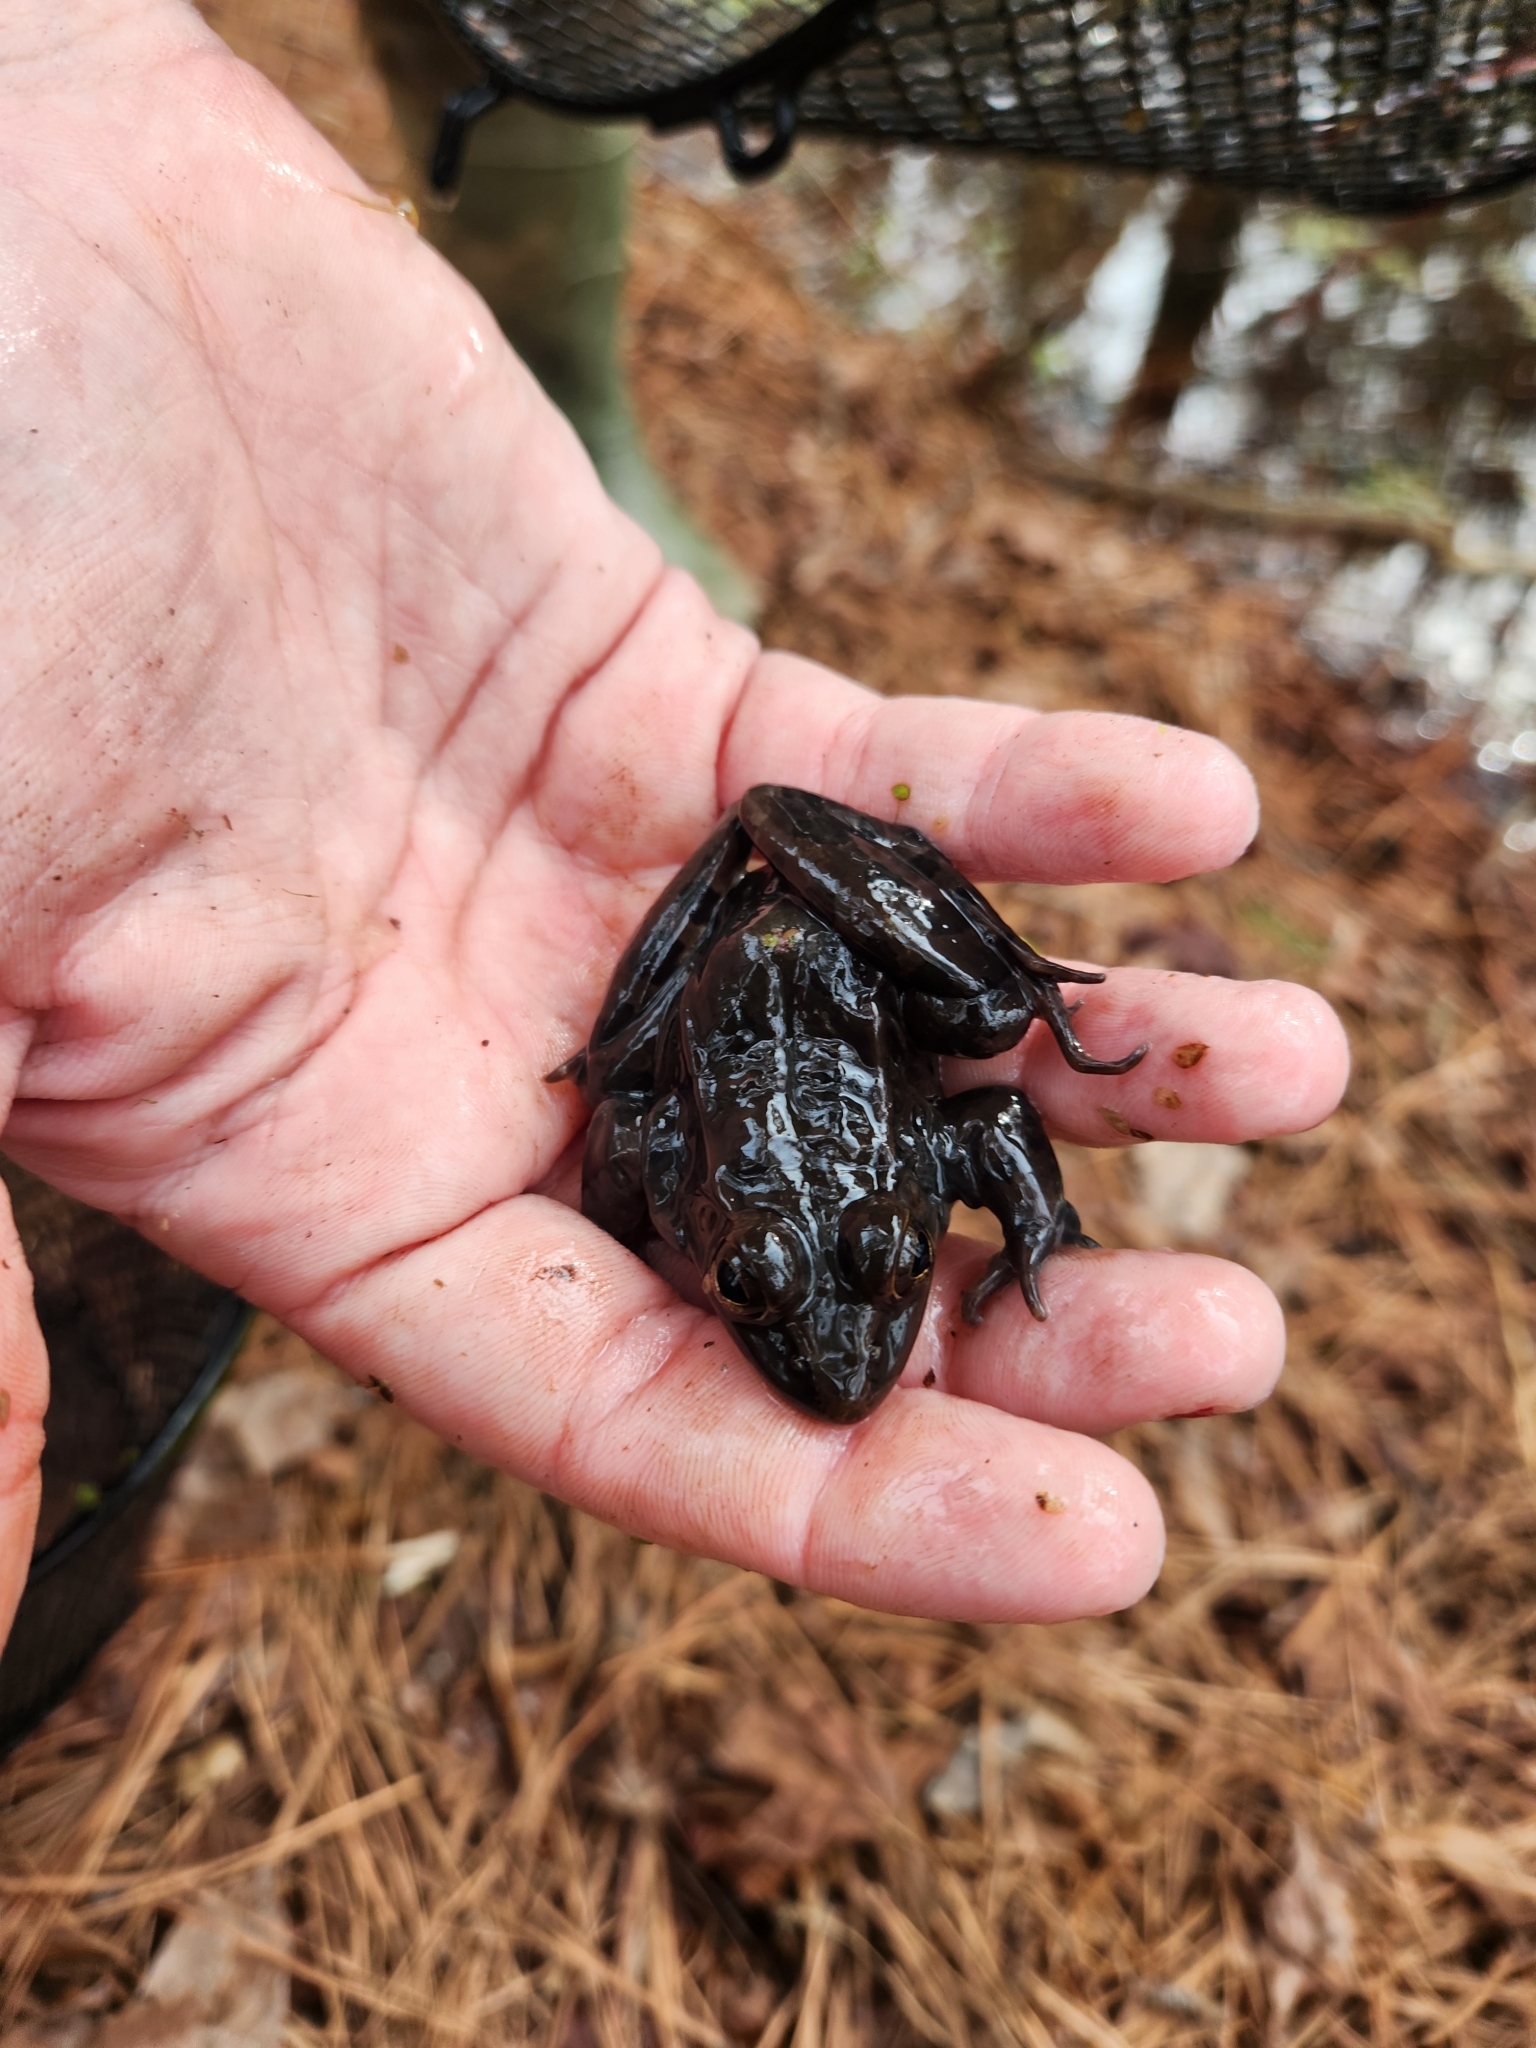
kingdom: Animalia
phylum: Chordata
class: Amphibia
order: Anura
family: Ranidae
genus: Lithobates
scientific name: Lithobates sphenocephalus
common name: Southern leopard frog
